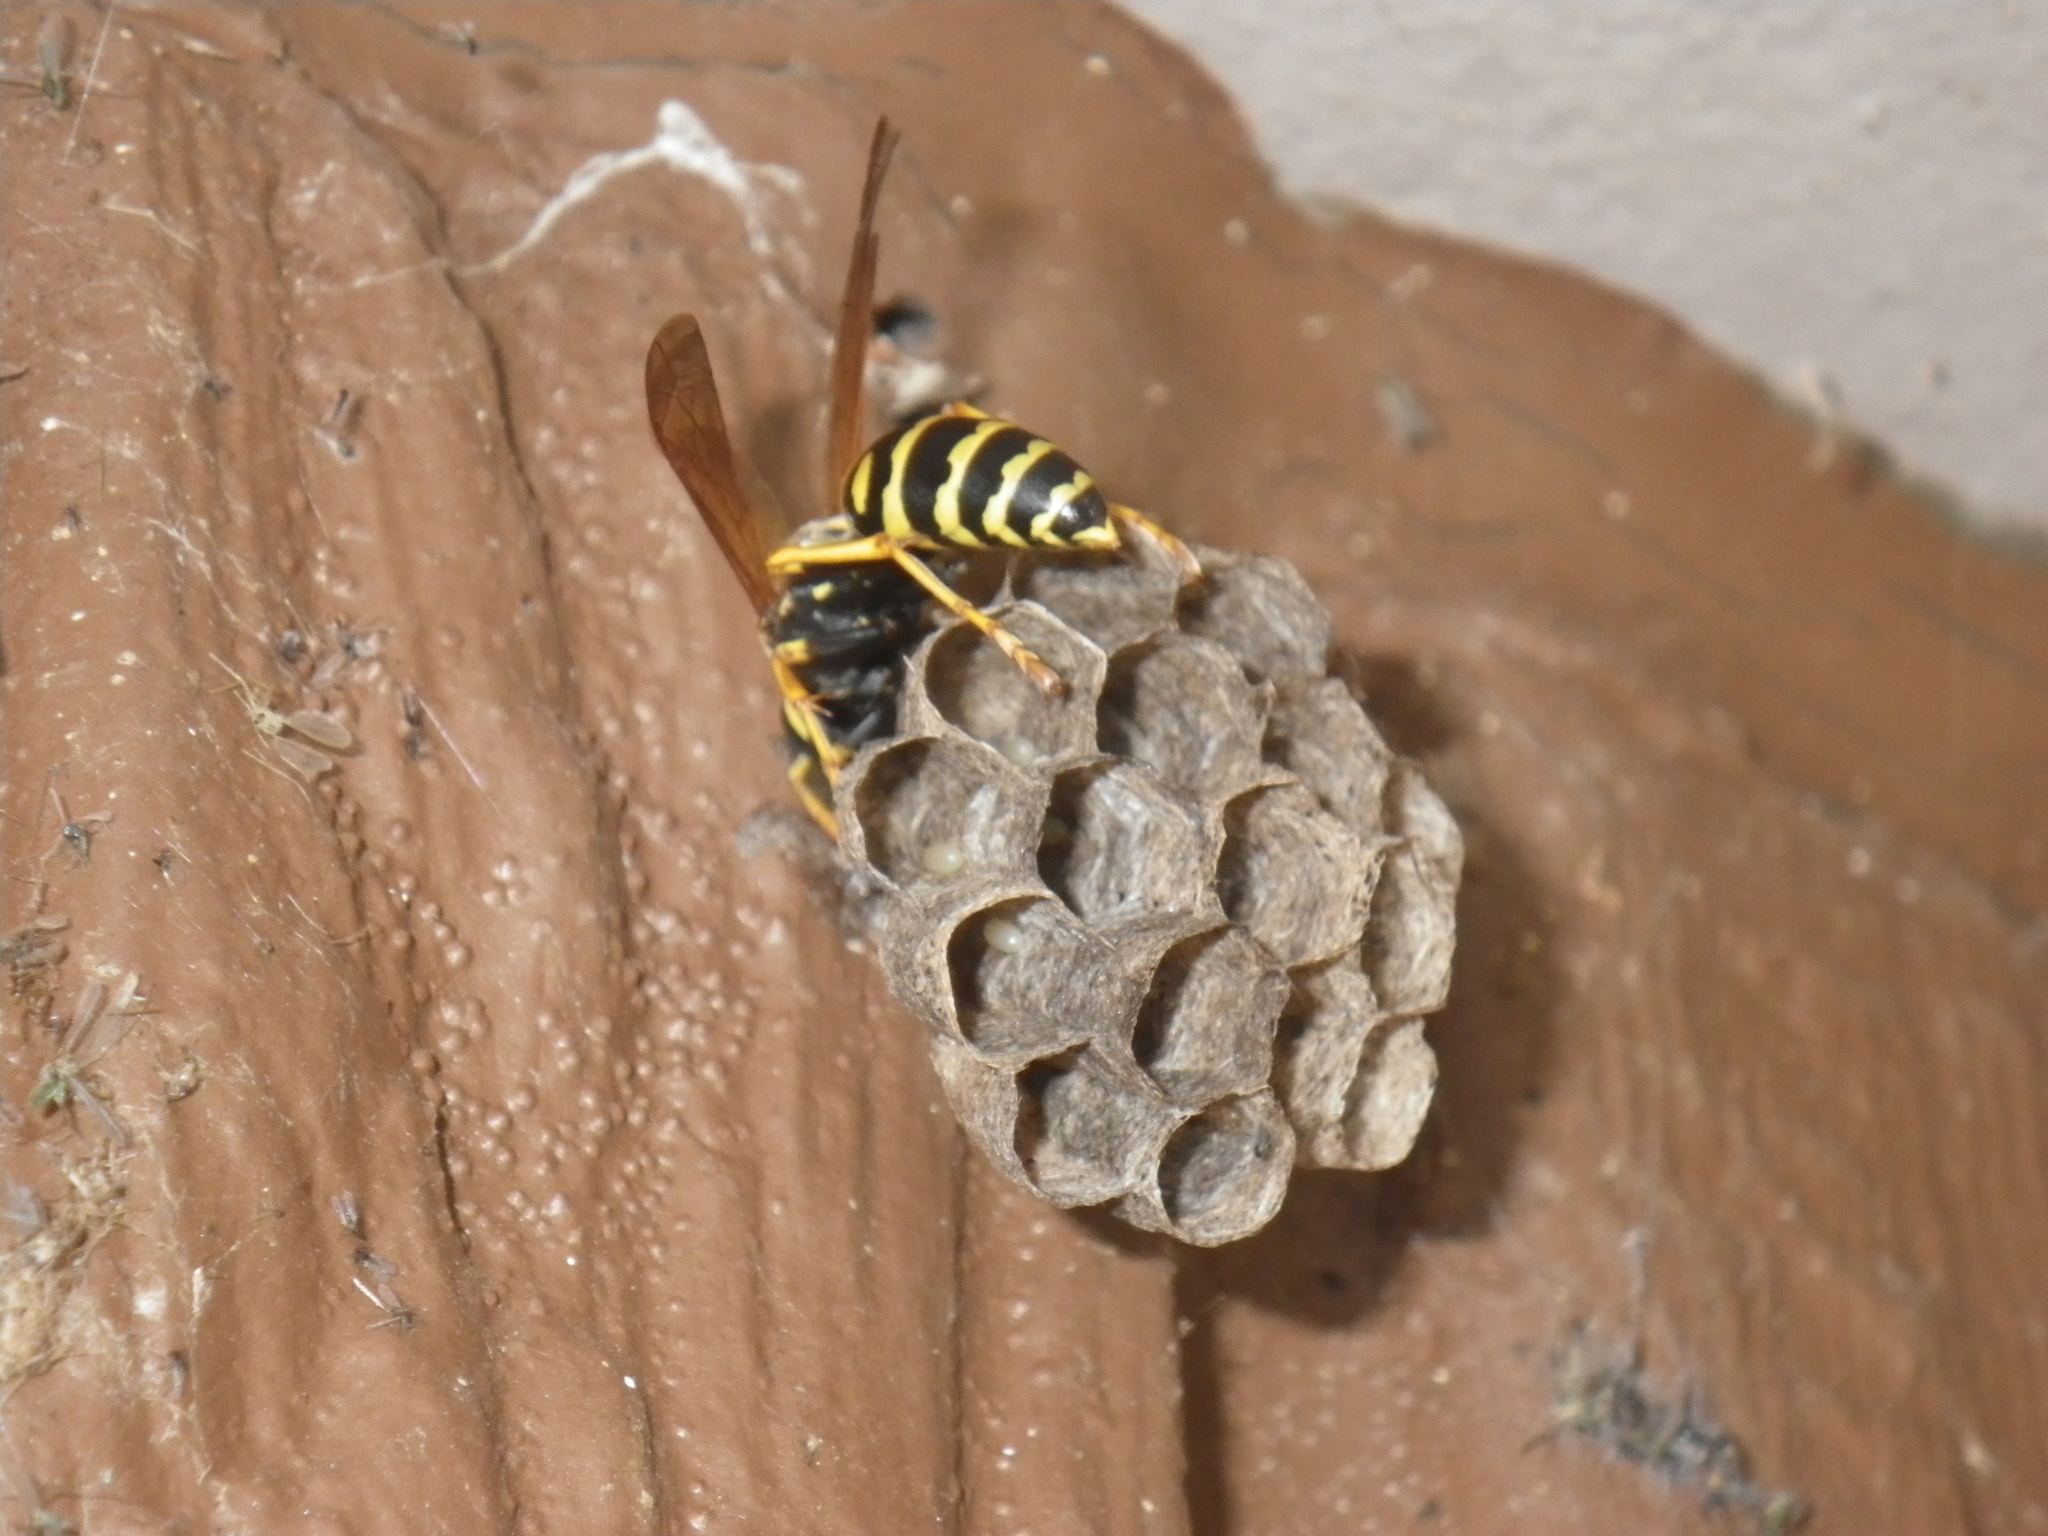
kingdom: Animalia
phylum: Arthropoda
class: Insecta
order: Hymenoptera
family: Eumenidae
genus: Polistes
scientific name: Polistes dominula
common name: Paper wasp
